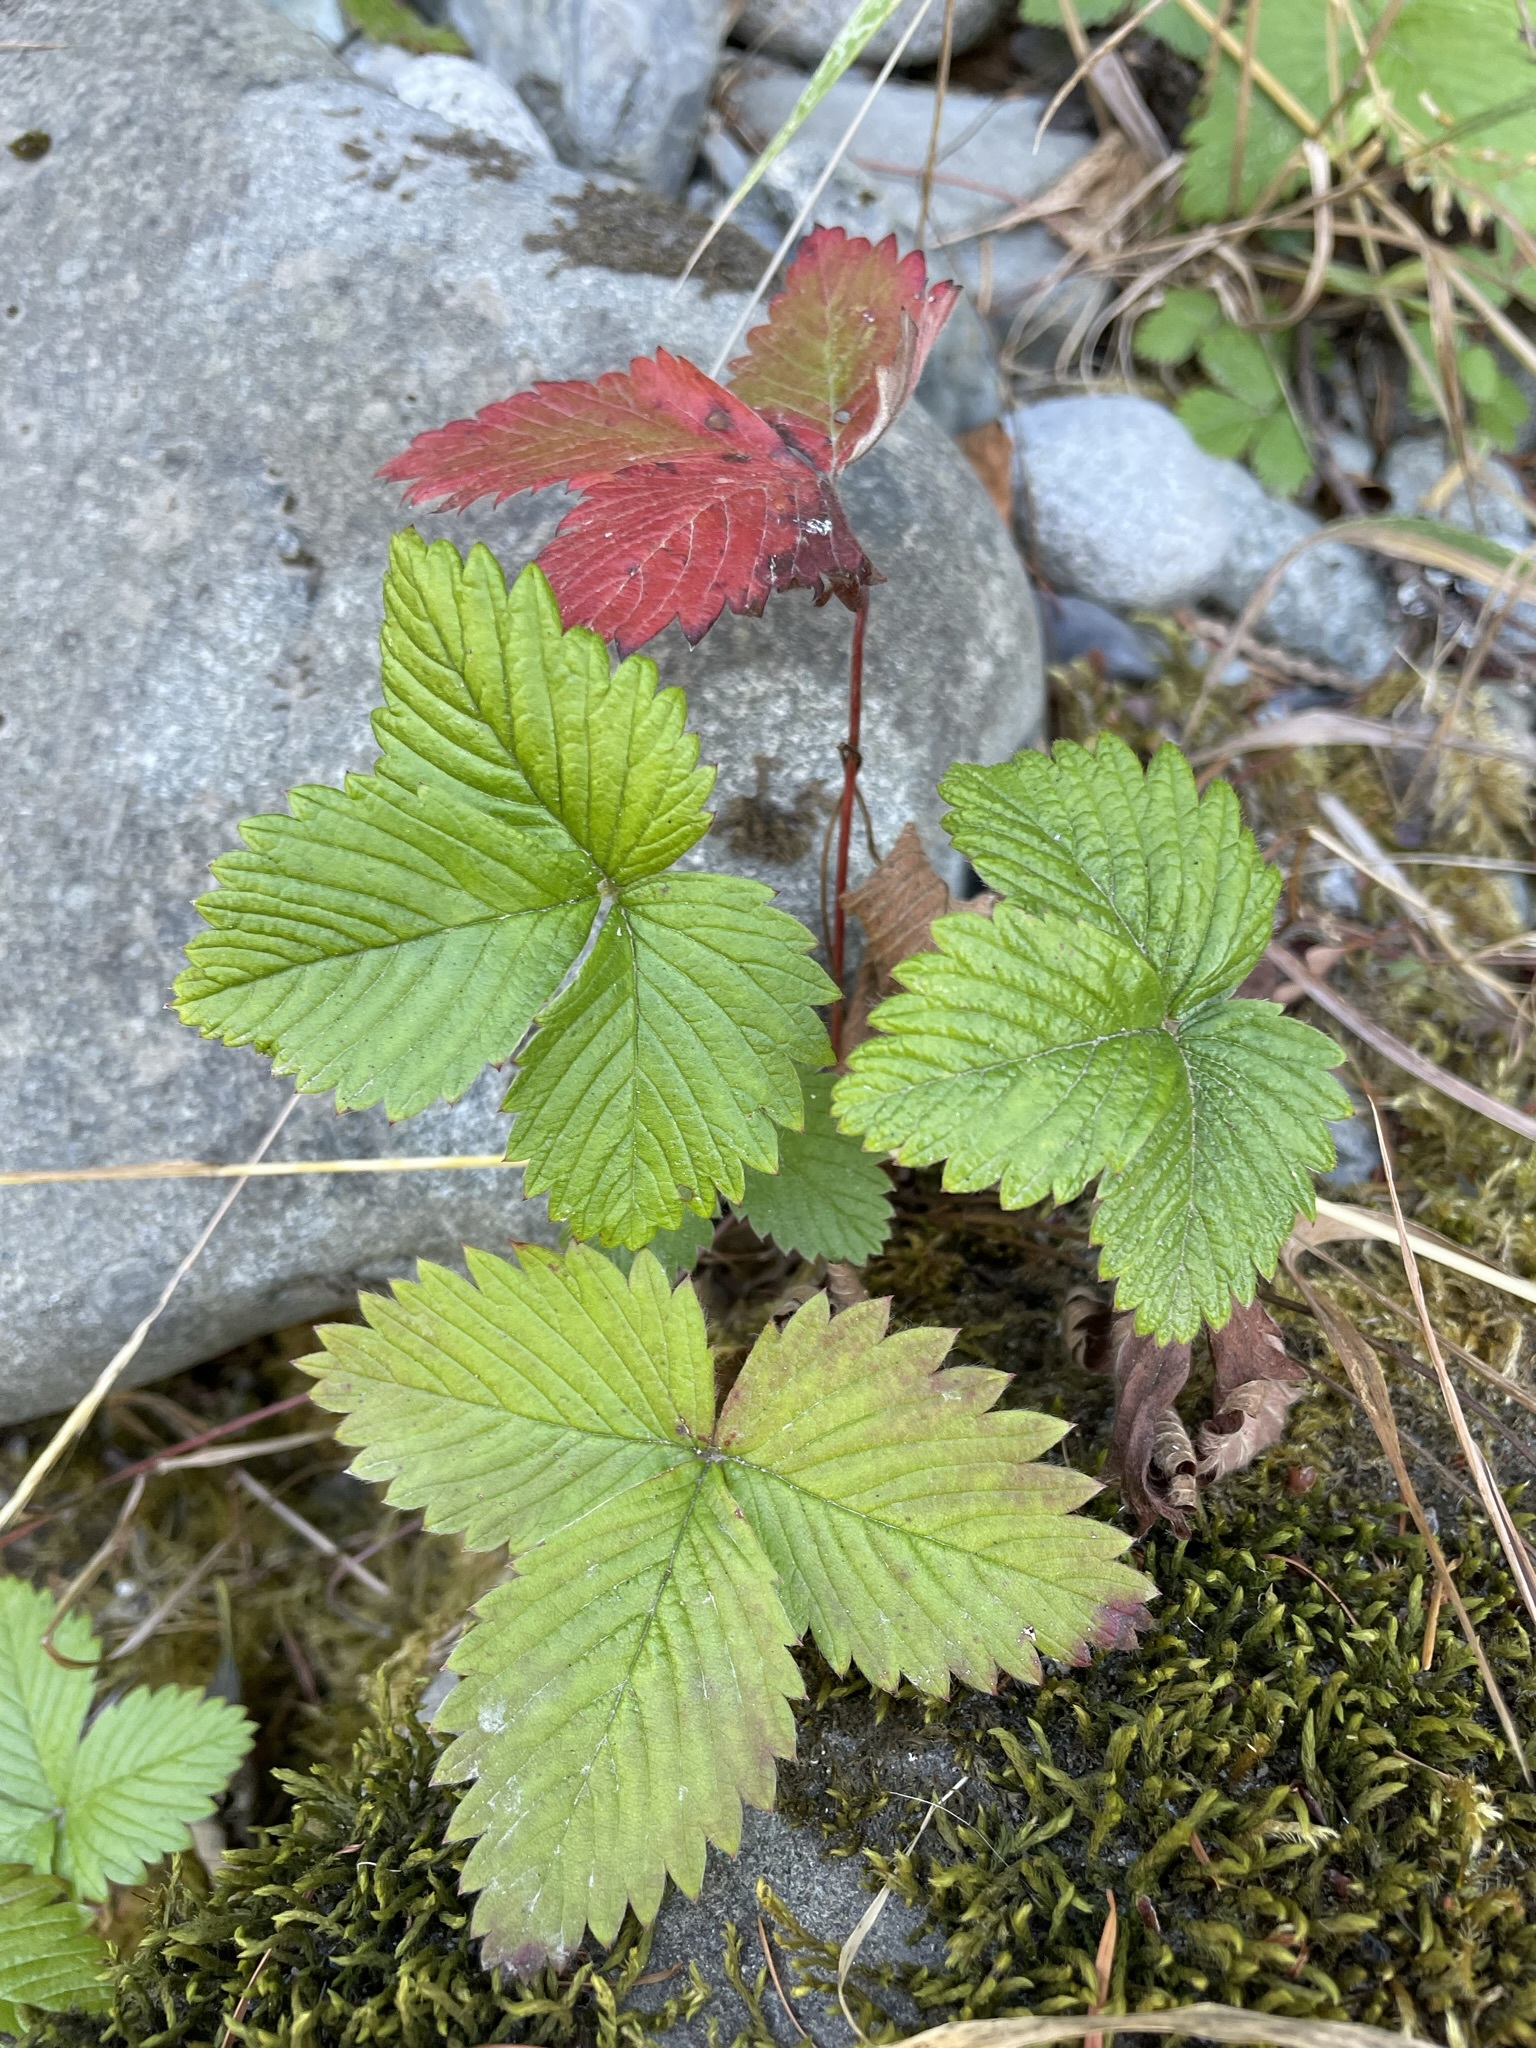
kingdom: Plantae
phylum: Tracheophyta
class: Magnoliopsida
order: Rosales
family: Rosaceae
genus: Fragaria
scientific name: Fragaria vesca
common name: Wild strawberry
